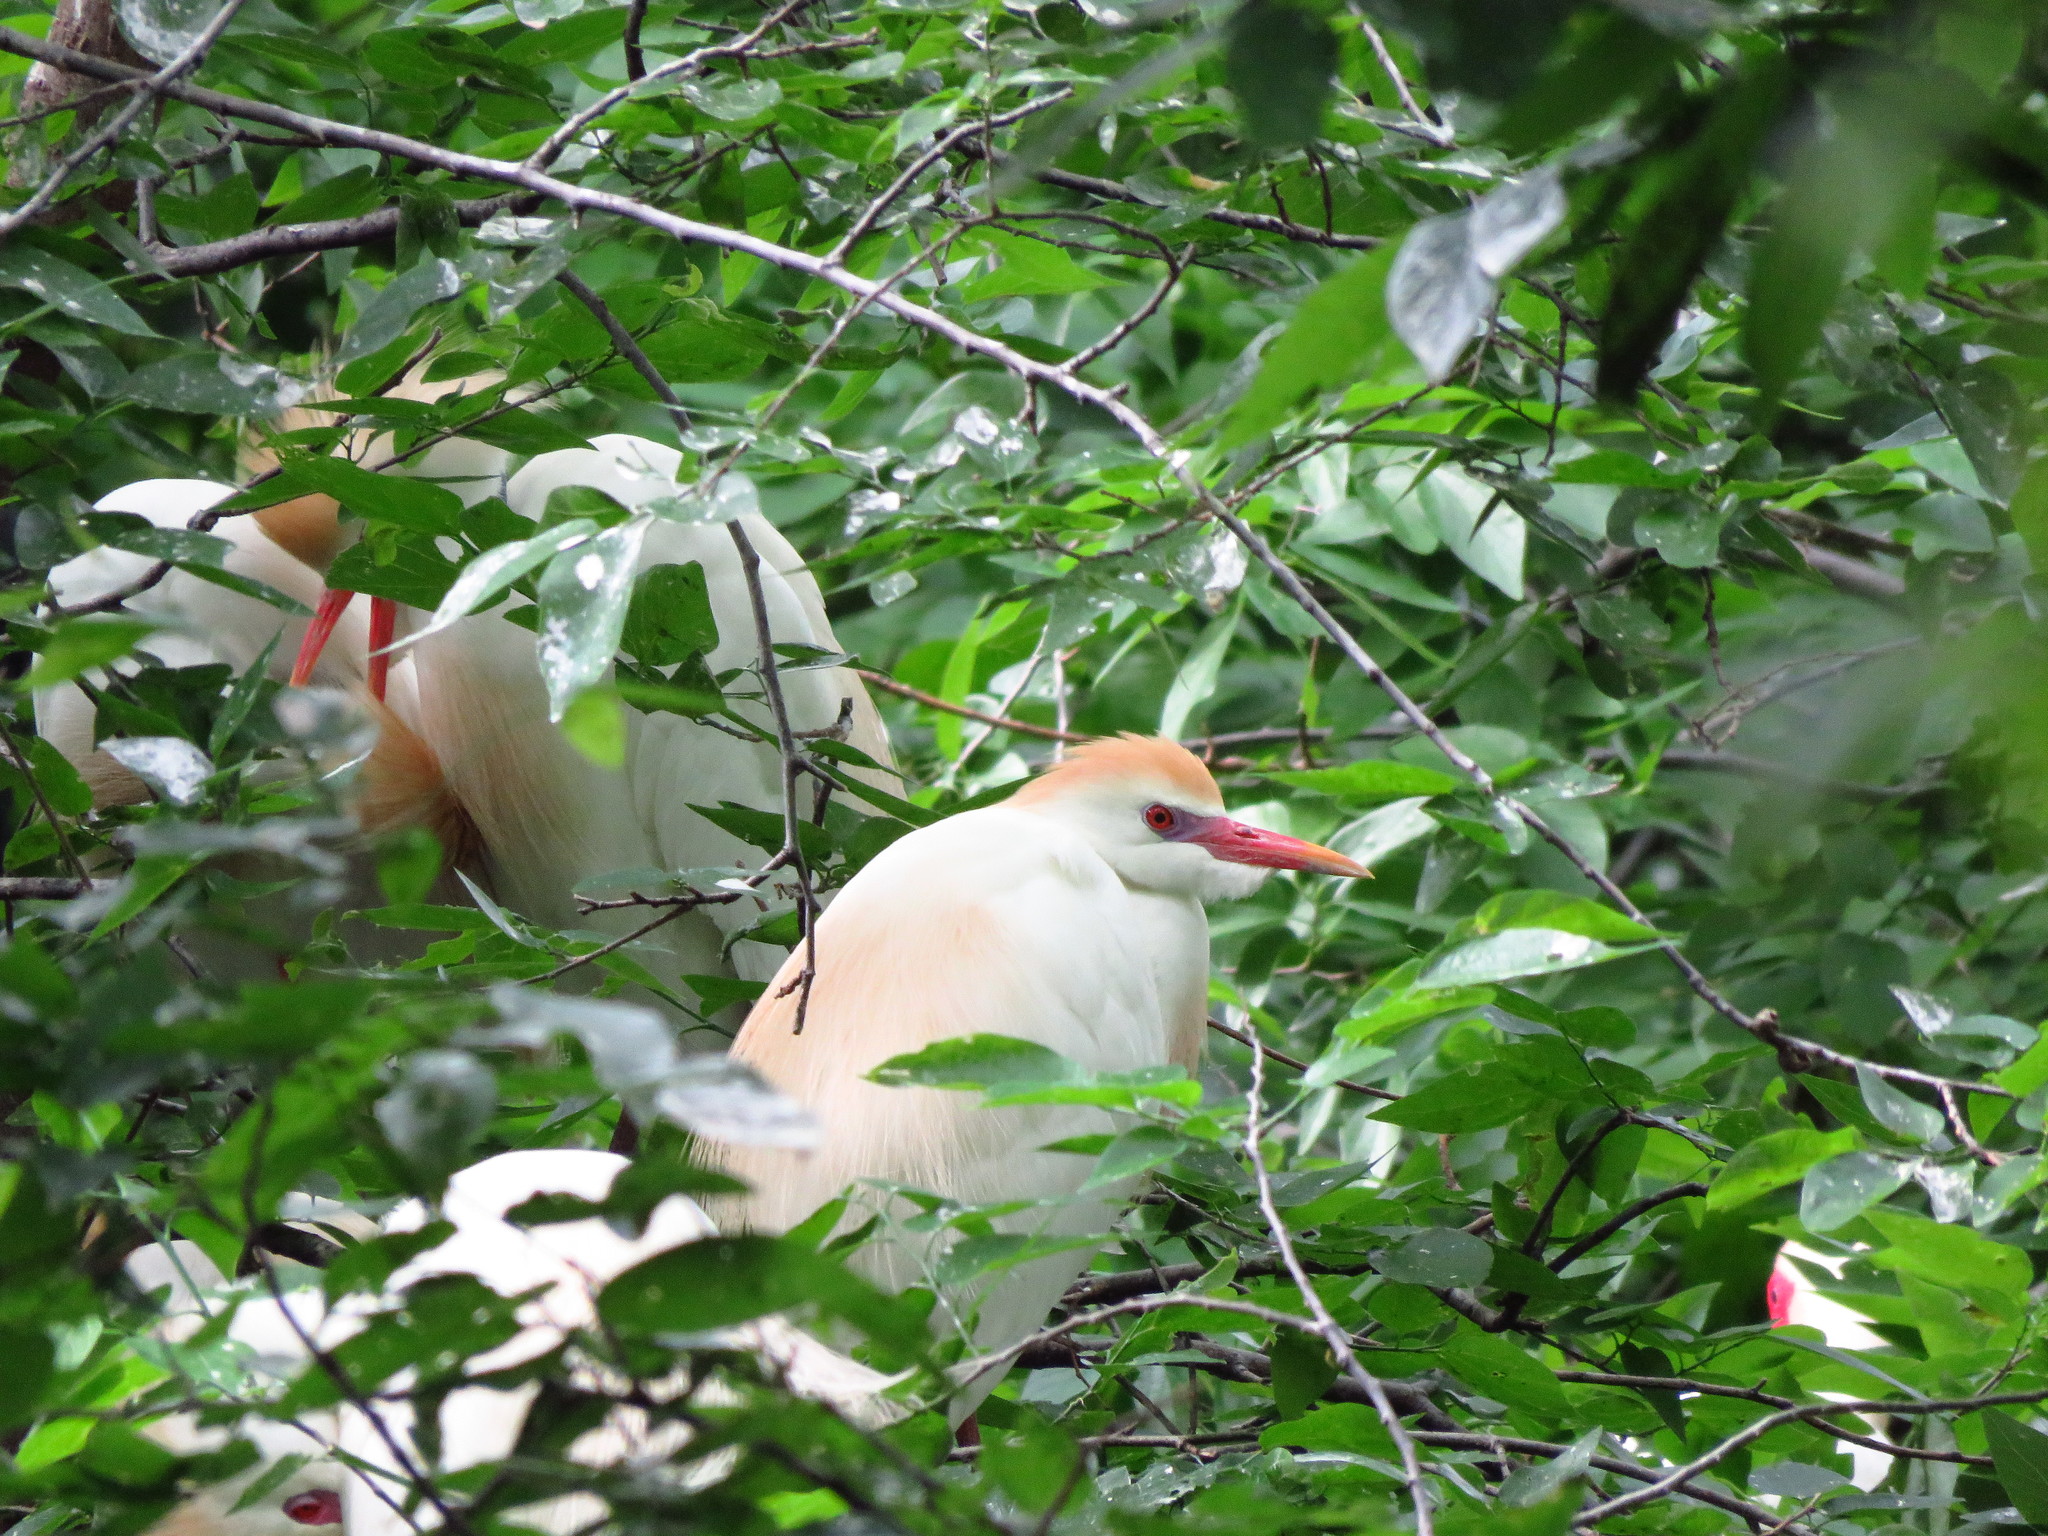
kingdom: Animalia
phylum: Chordata
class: Aves
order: Pelecaniformes
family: Ardeidae
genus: Bubulcus
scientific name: Bubulcus ibis
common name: Cattle egret
